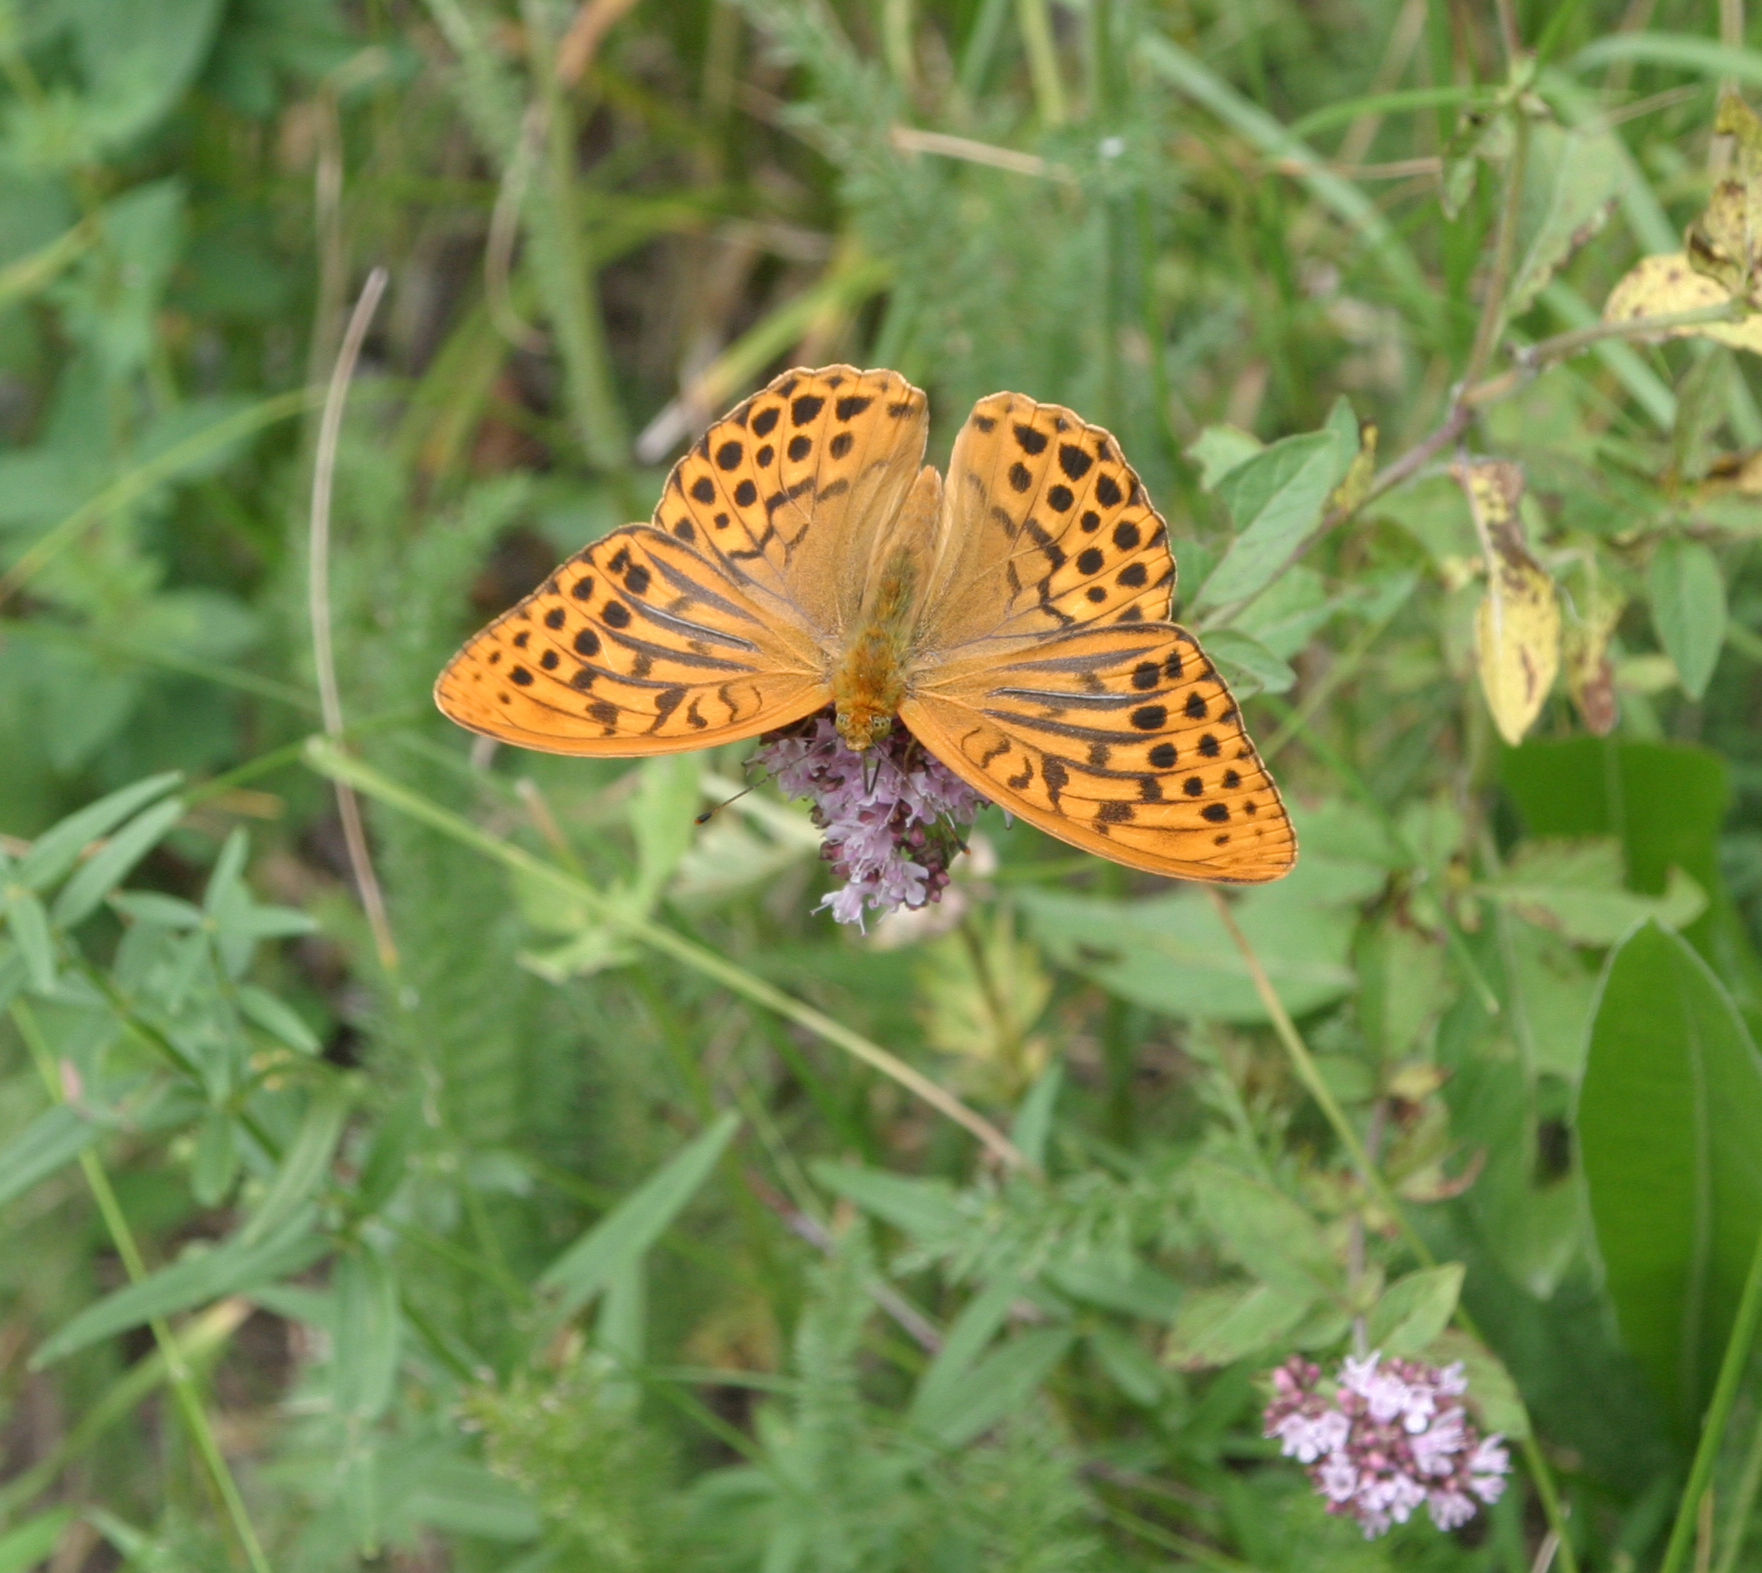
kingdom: Animalia
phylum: Arthropoda
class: Insecta
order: Lepidoptera
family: Nymphalidae
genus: Argynnis
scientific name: Argynnis paphia
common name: Silver-washed fritillary
